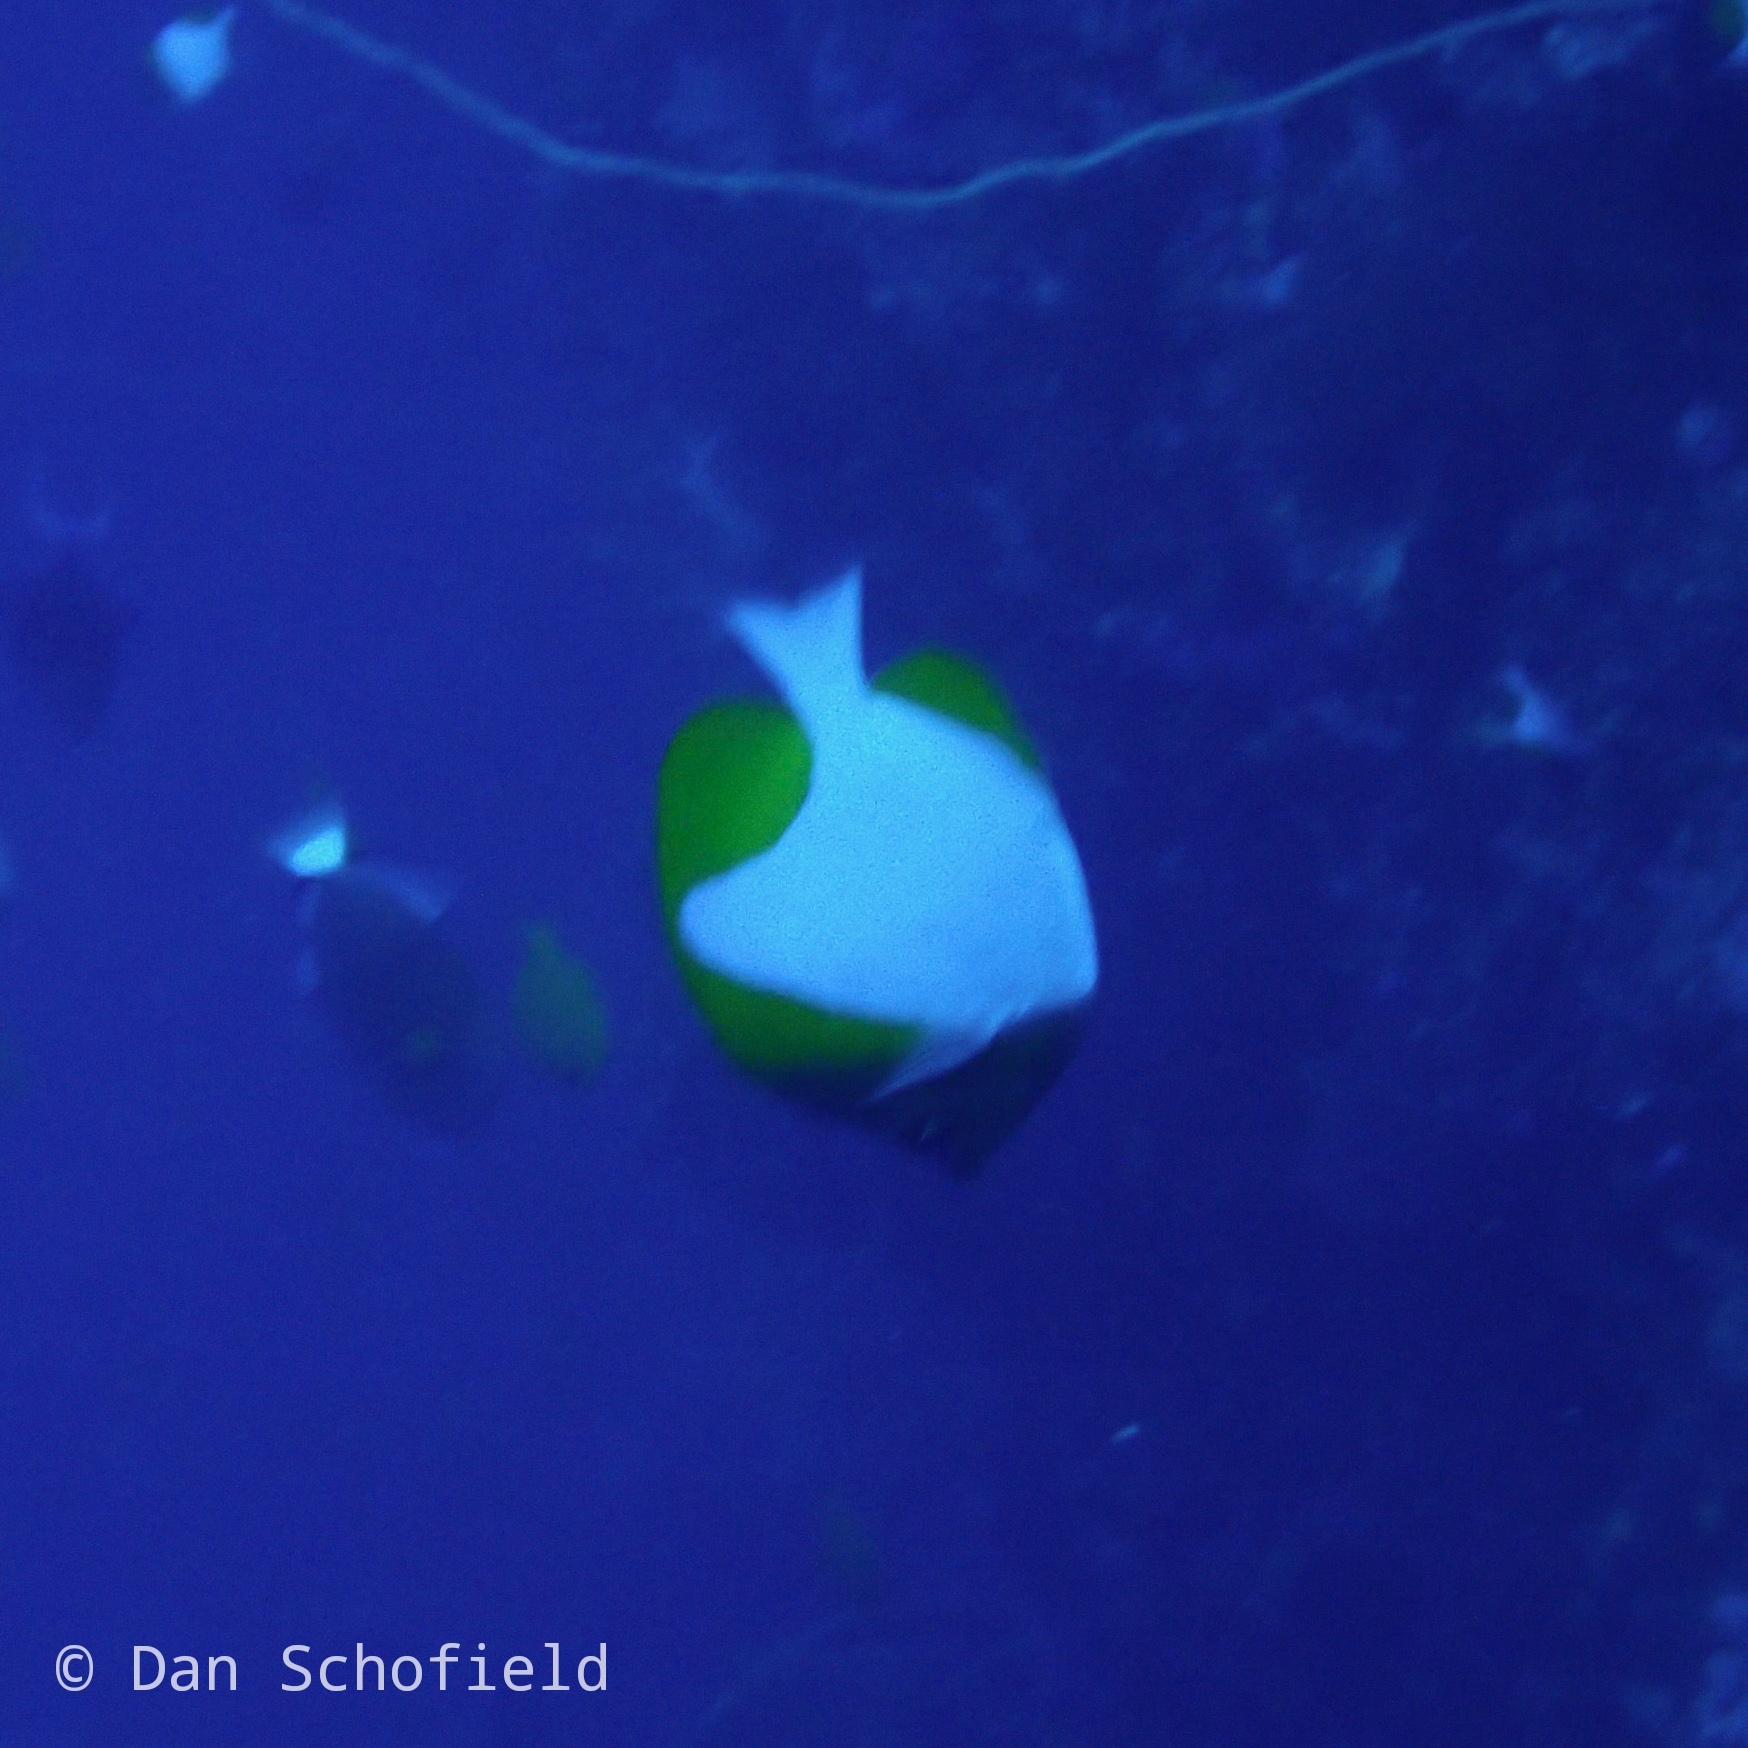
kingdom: Animalia
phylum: Chordata
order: Perciformes
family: Chaetodontidae
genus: Hemitaurichthys
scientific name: Hemitaurichthys polylepis
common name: Brushytoothed butterflyfish
